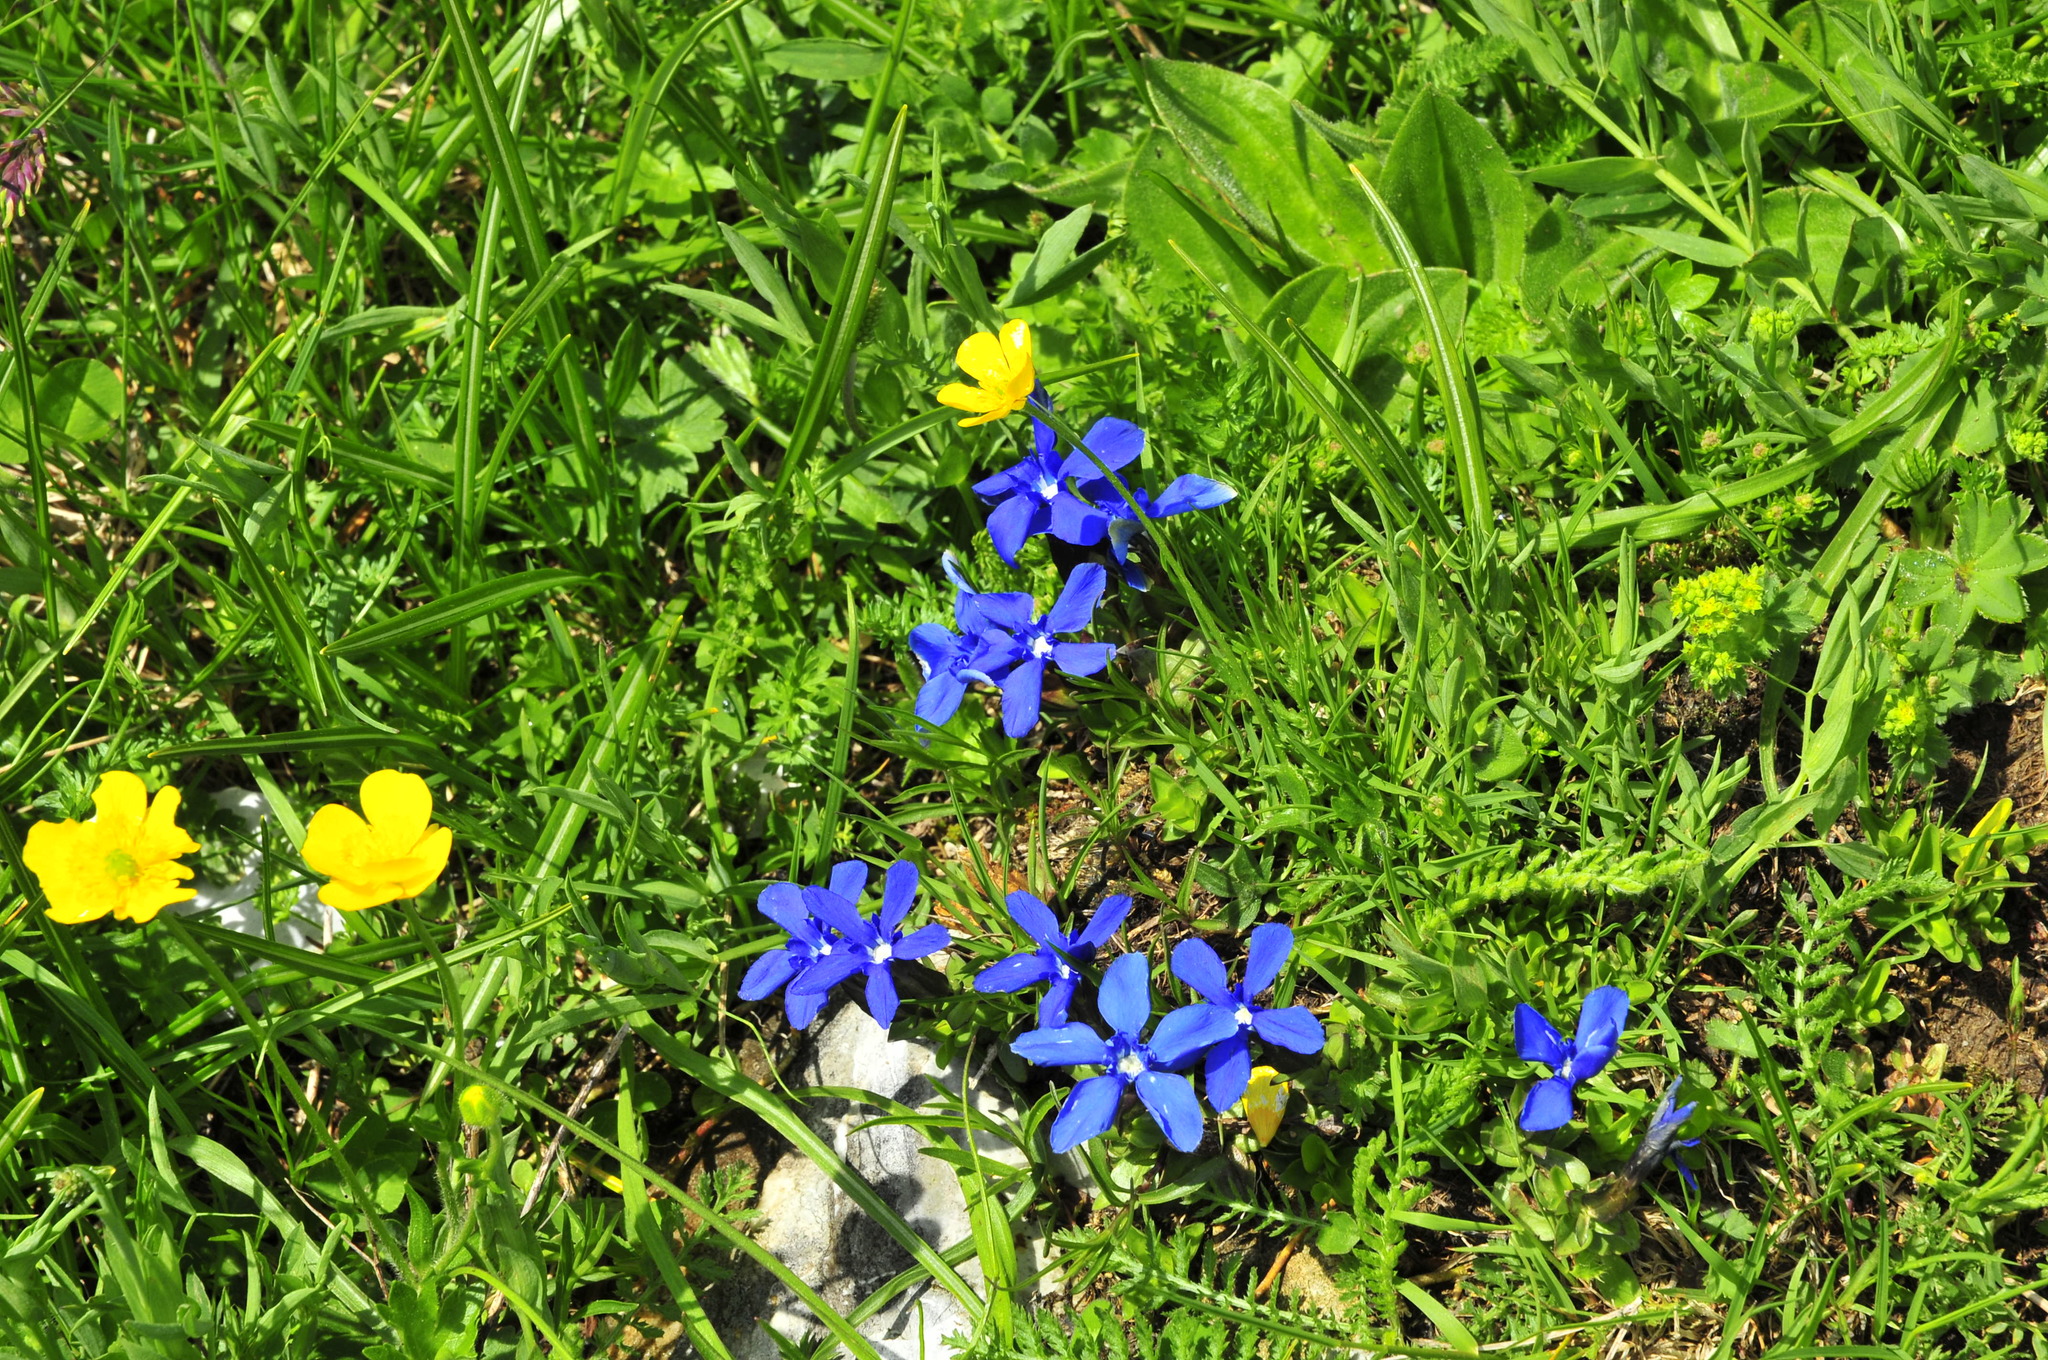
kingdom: Plantae
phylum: Tracheophyta
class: Magnoliopsida
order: Gentianales
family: Gentianaceae
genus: Gentiana
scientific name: Gentiana verna
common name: Spring gentian
